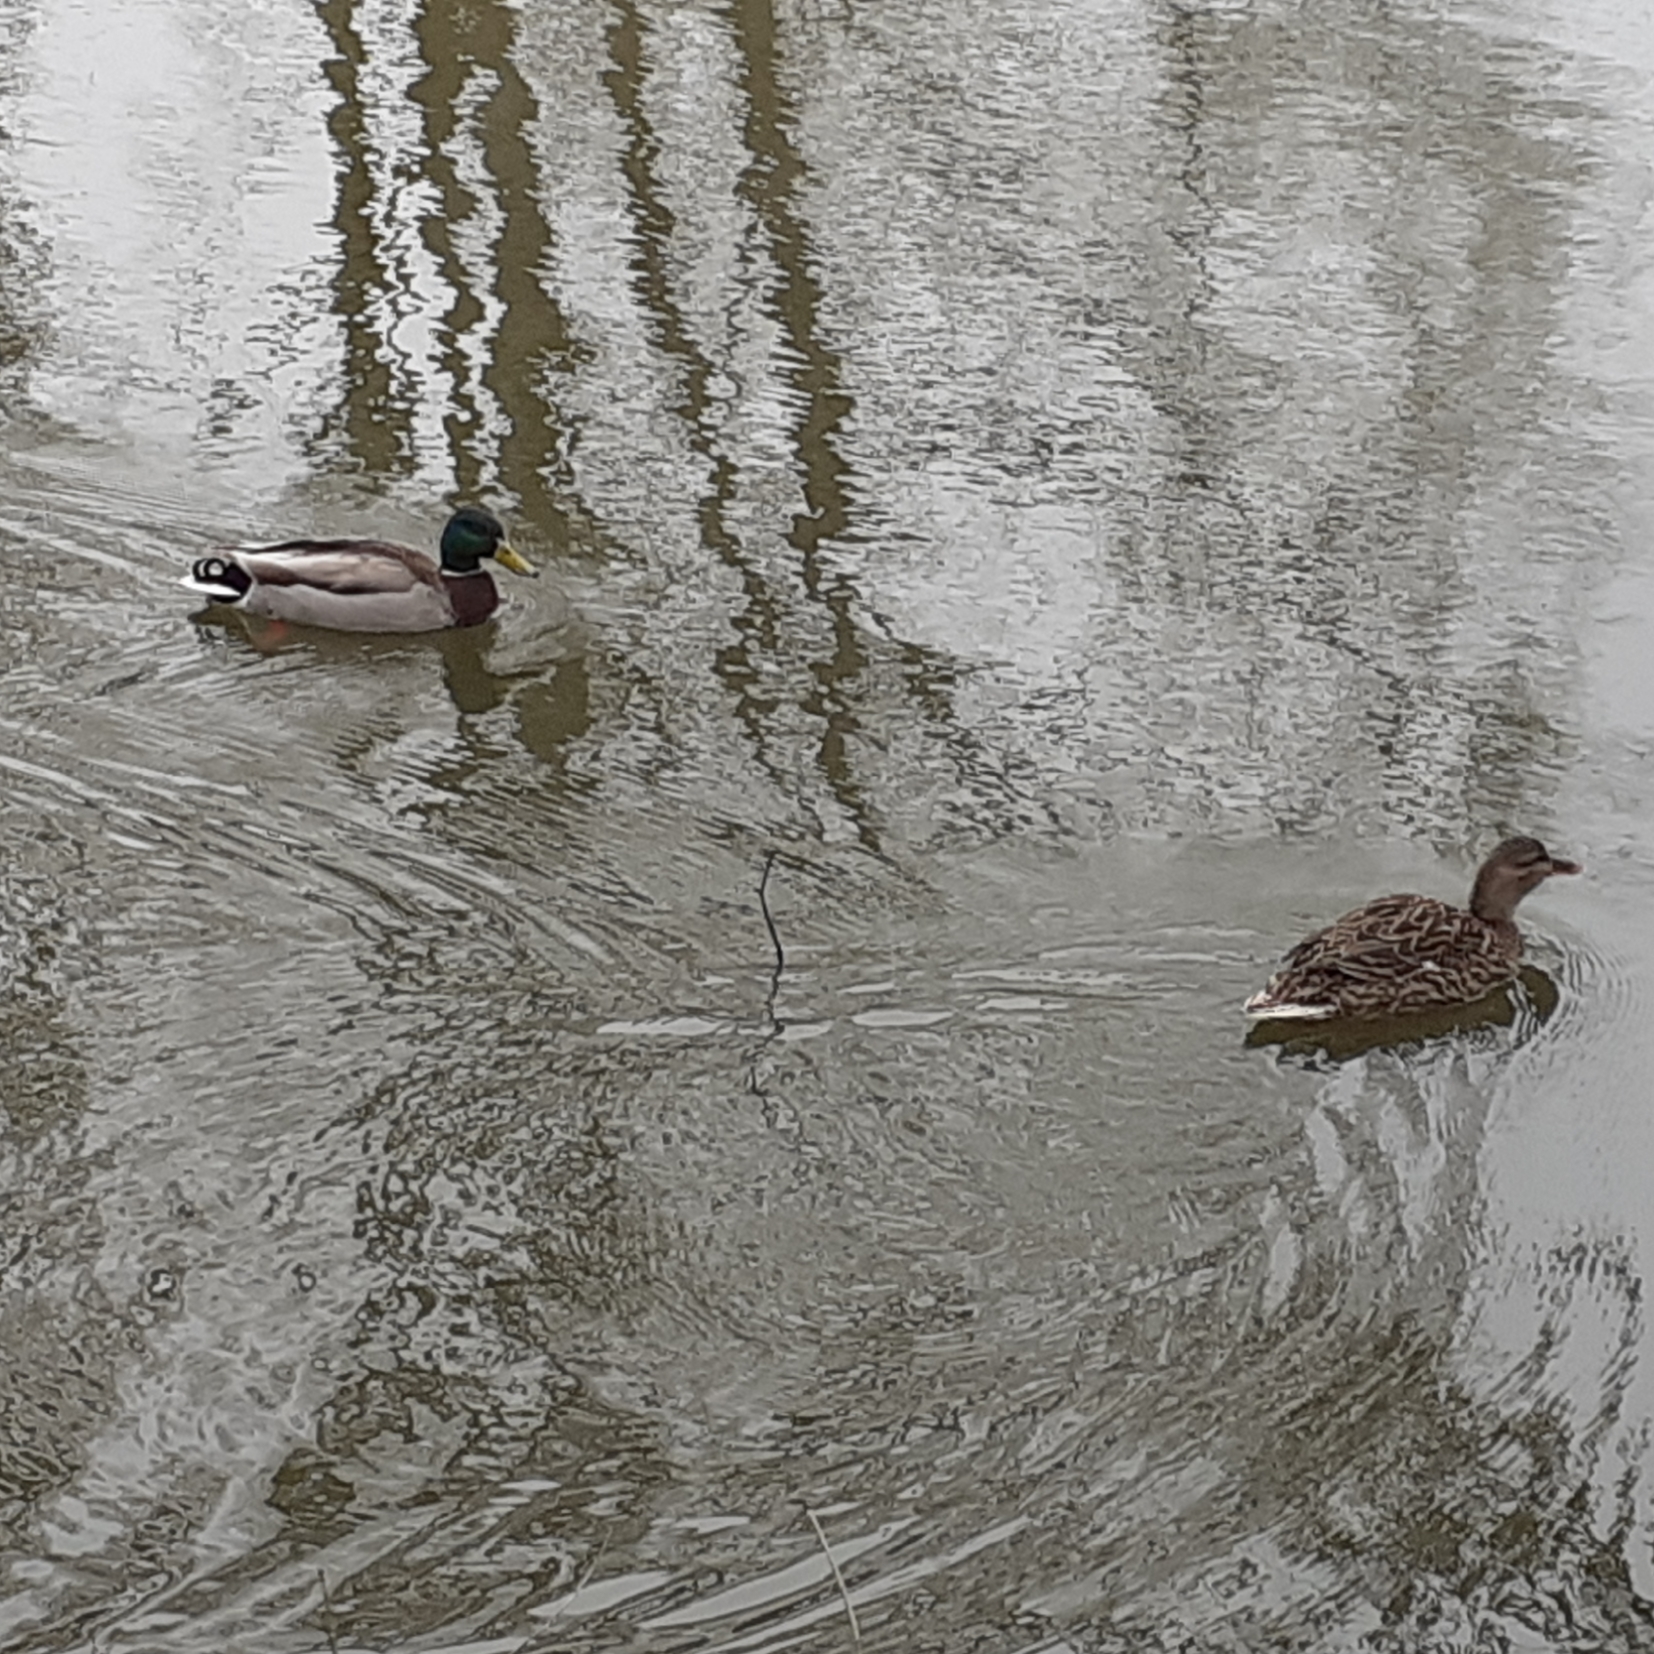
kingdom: Animalia
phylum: Chordata
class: Aves
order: Anseriformes
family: Anatidae
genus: Anas
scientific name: Anas platyrhynchos
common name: Mallard
